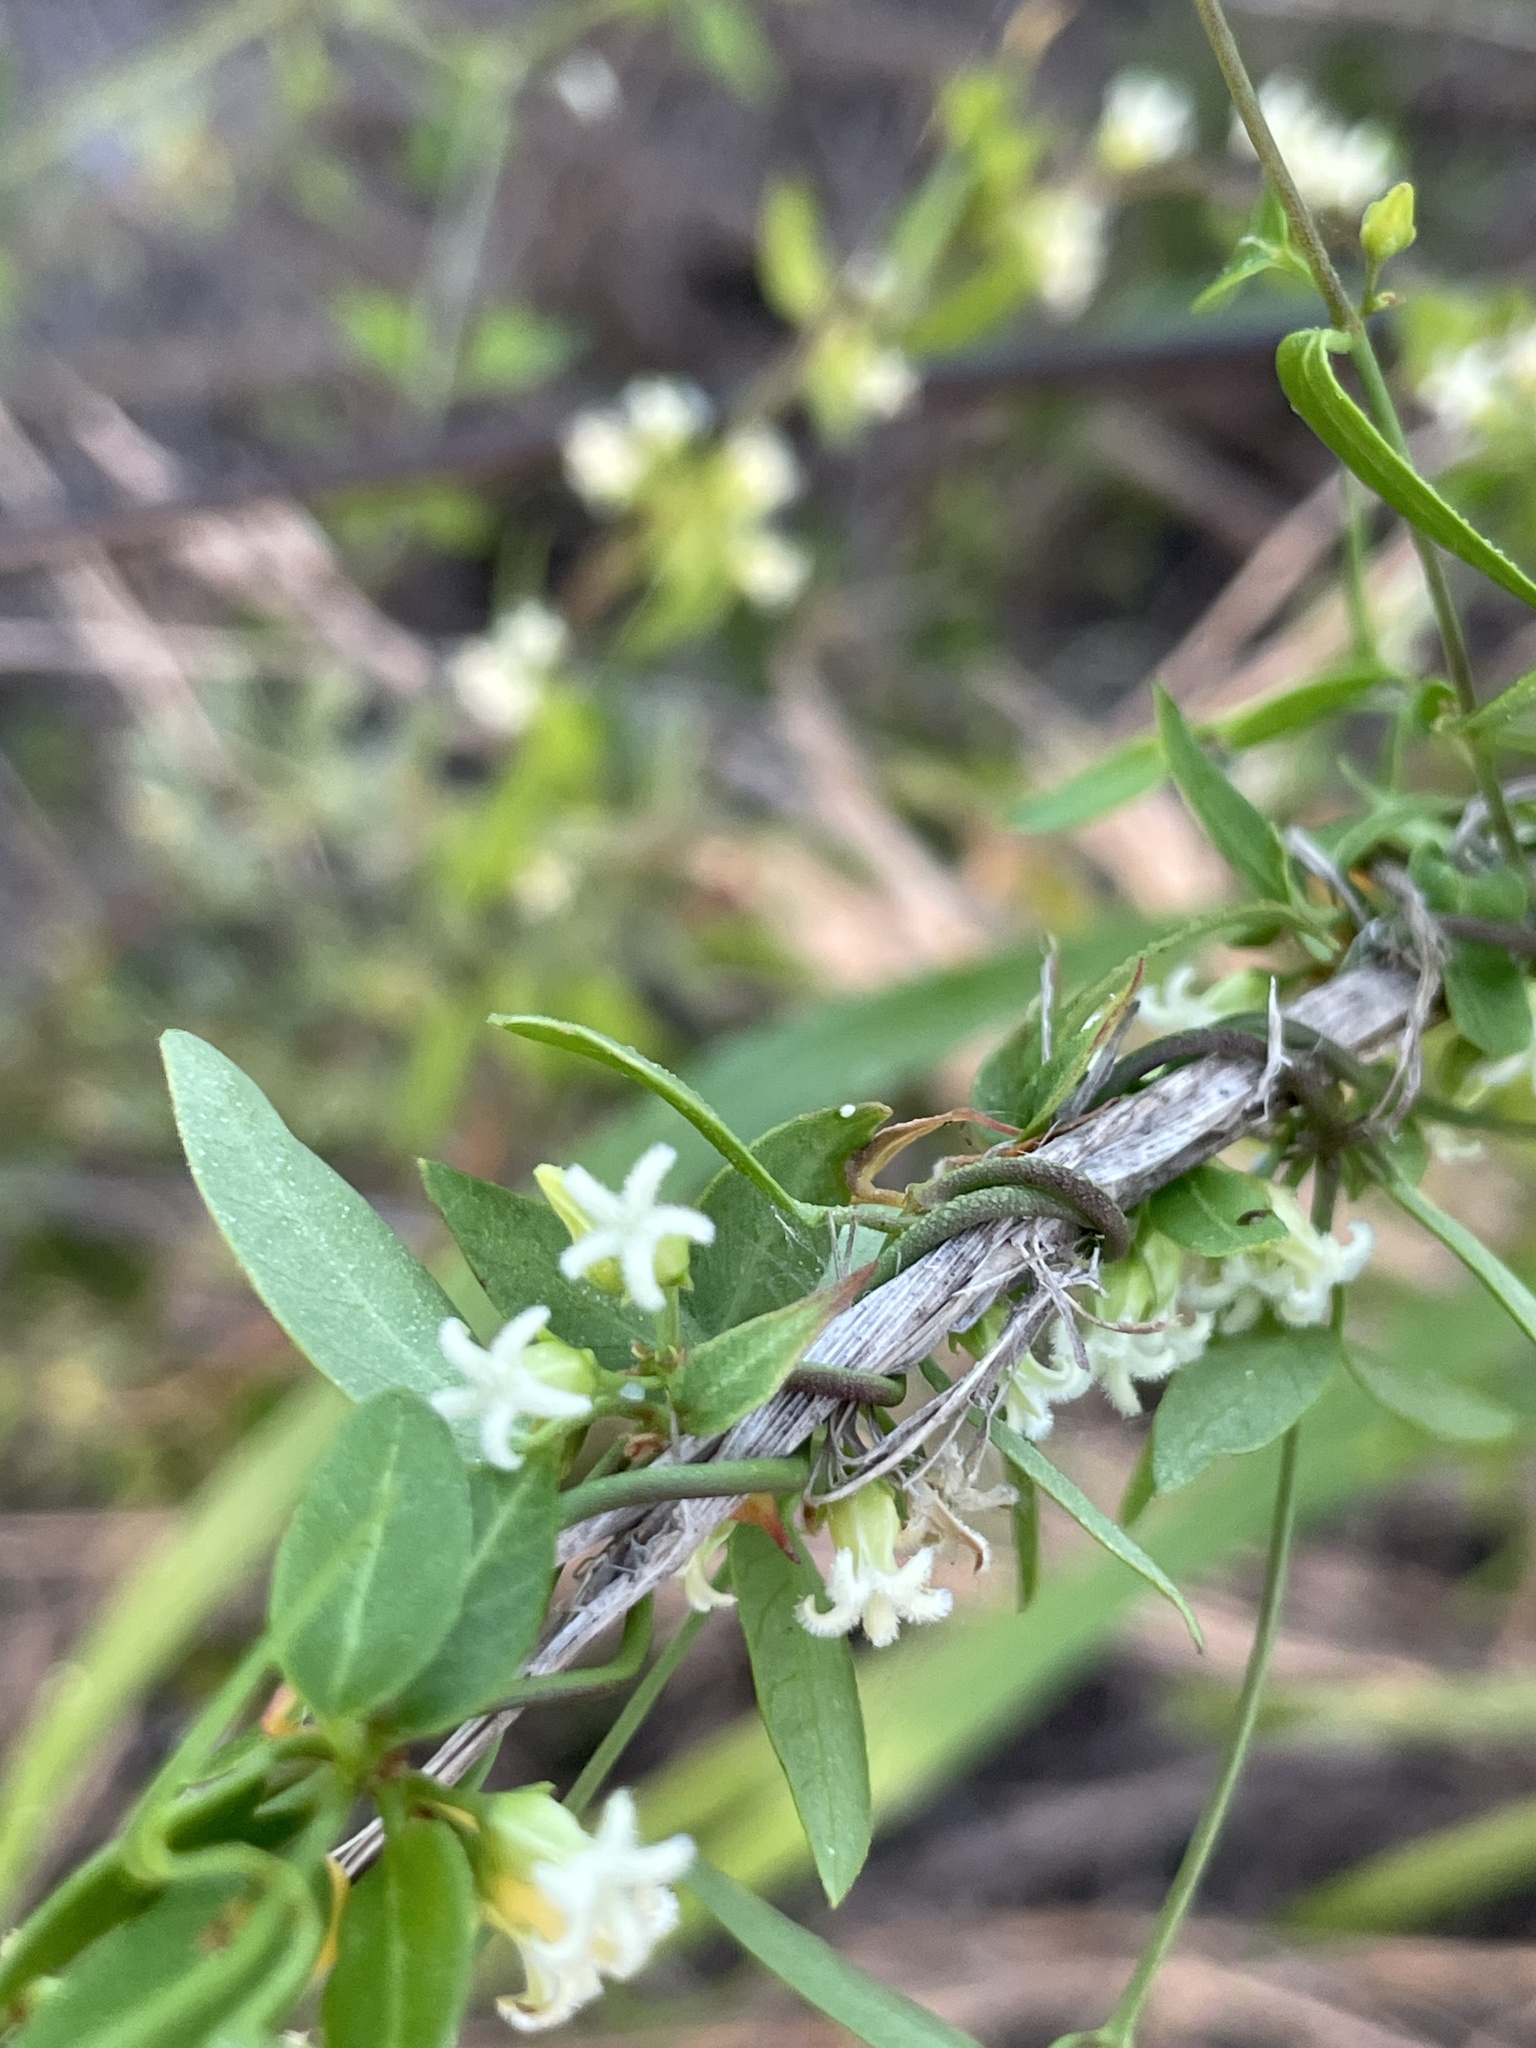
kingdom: Plantae
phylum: Tracheophyta
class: Magnoliopsida
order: Gentianales
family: Apocynaceae
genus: Metastelma
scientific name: Metastelma barbigerum
